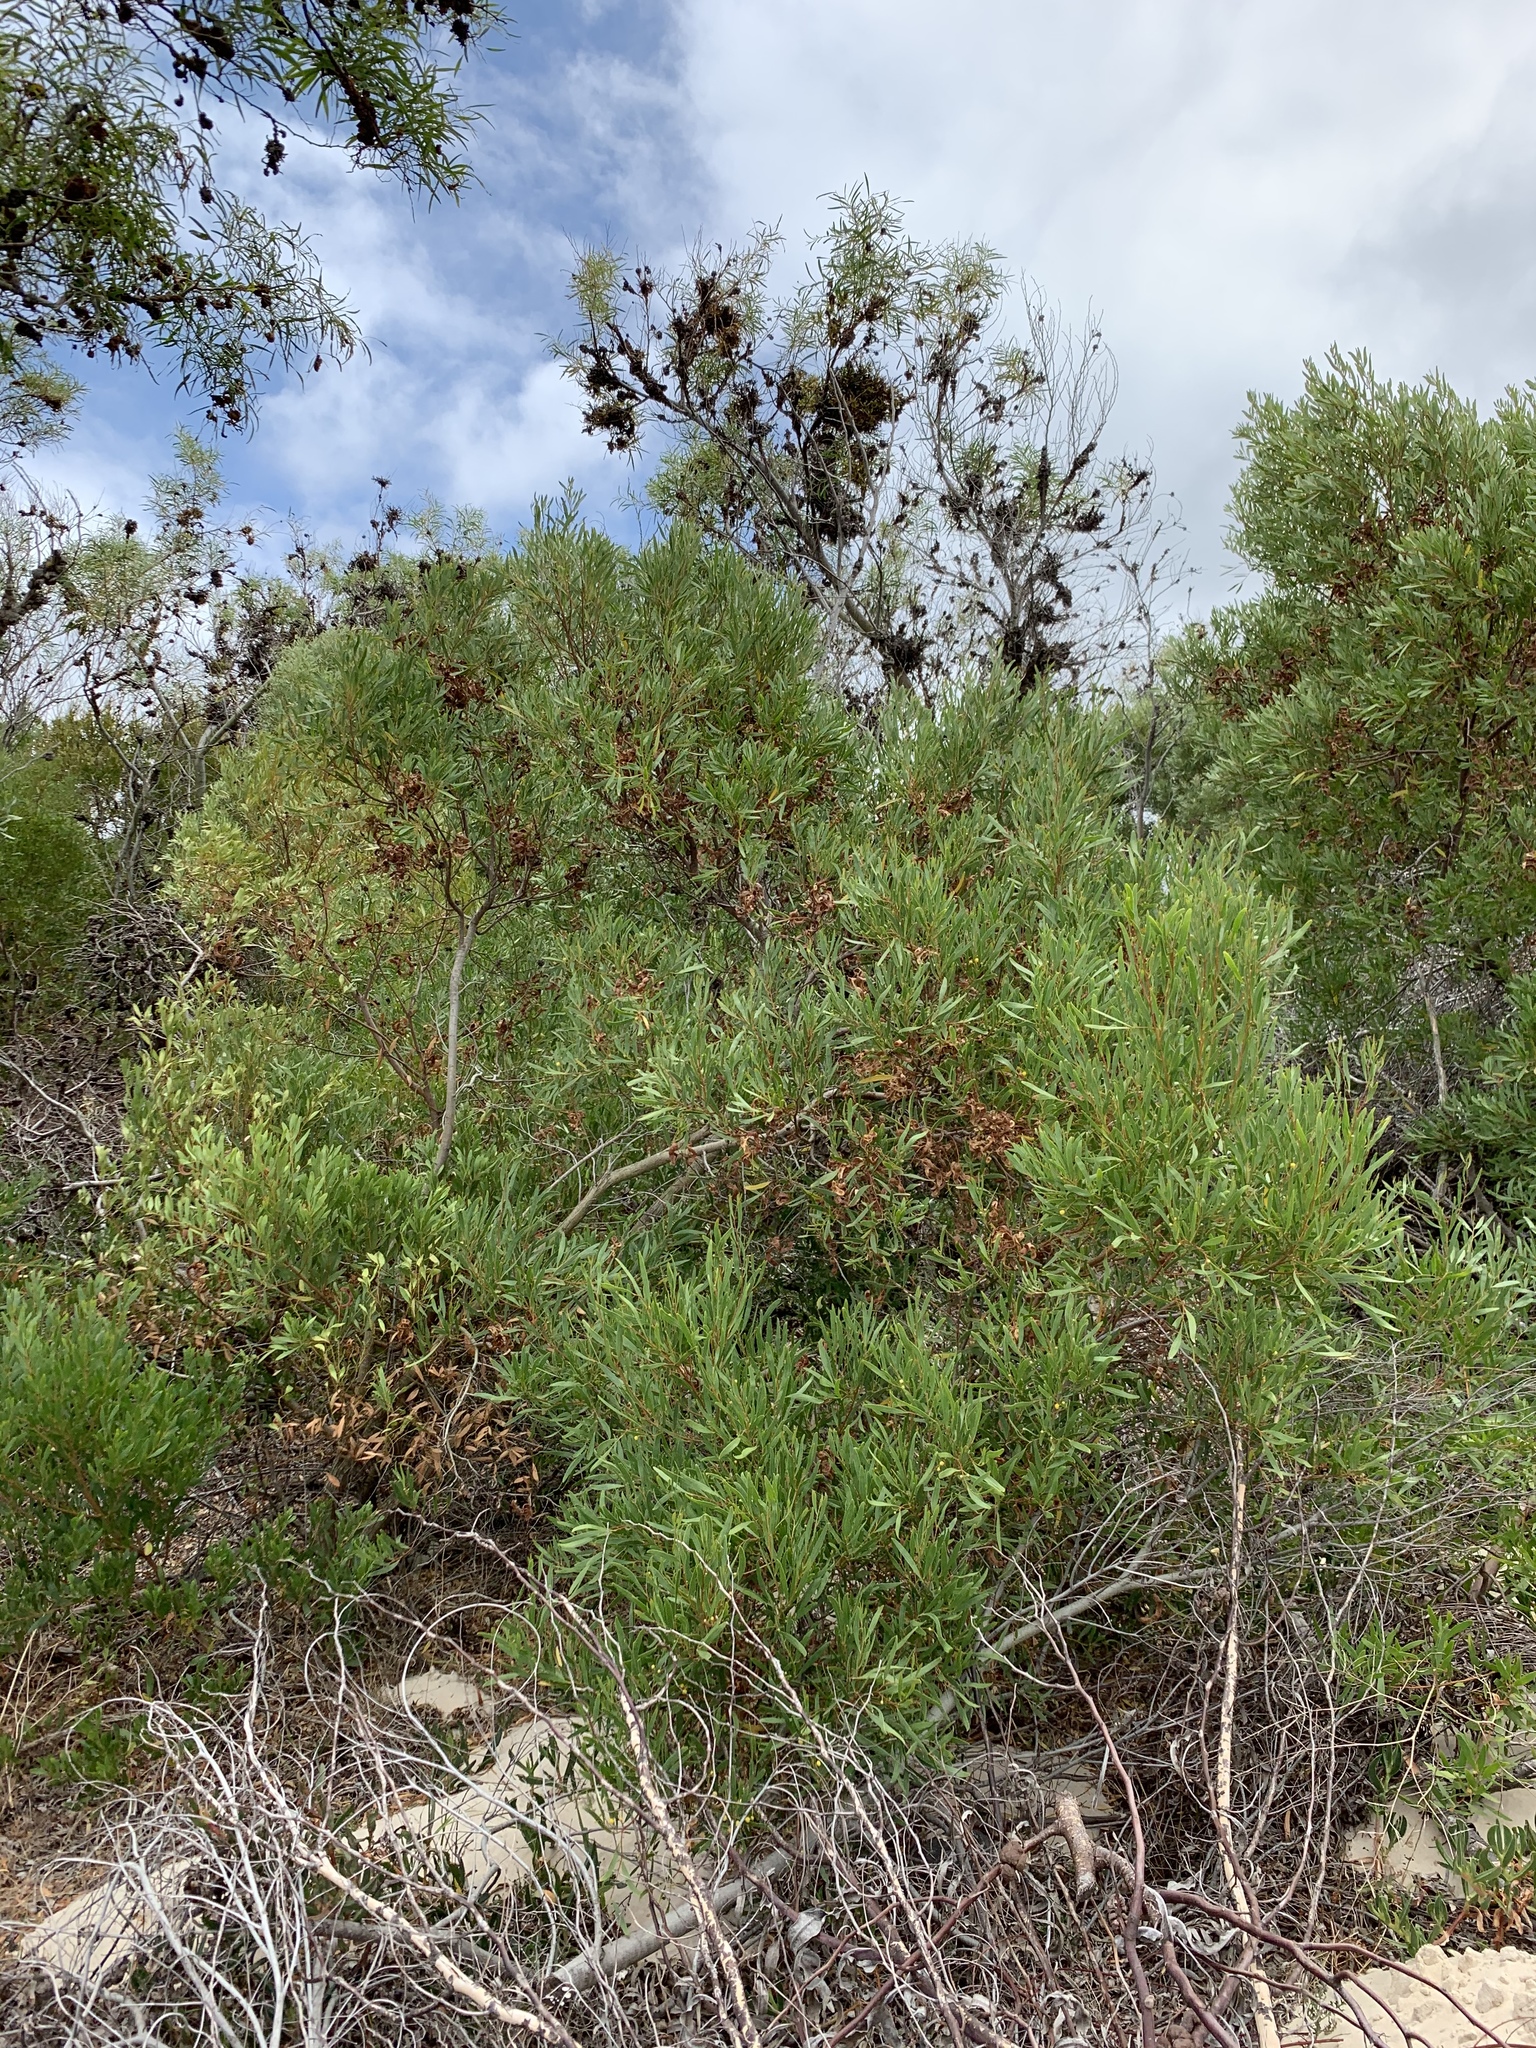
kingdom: Plantae
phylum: Tracheophyta
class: Magnoliopsida
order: Fabales
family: Fabaceae
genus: Acacia
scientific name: Acacia cyclops
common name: Coastal wattle
